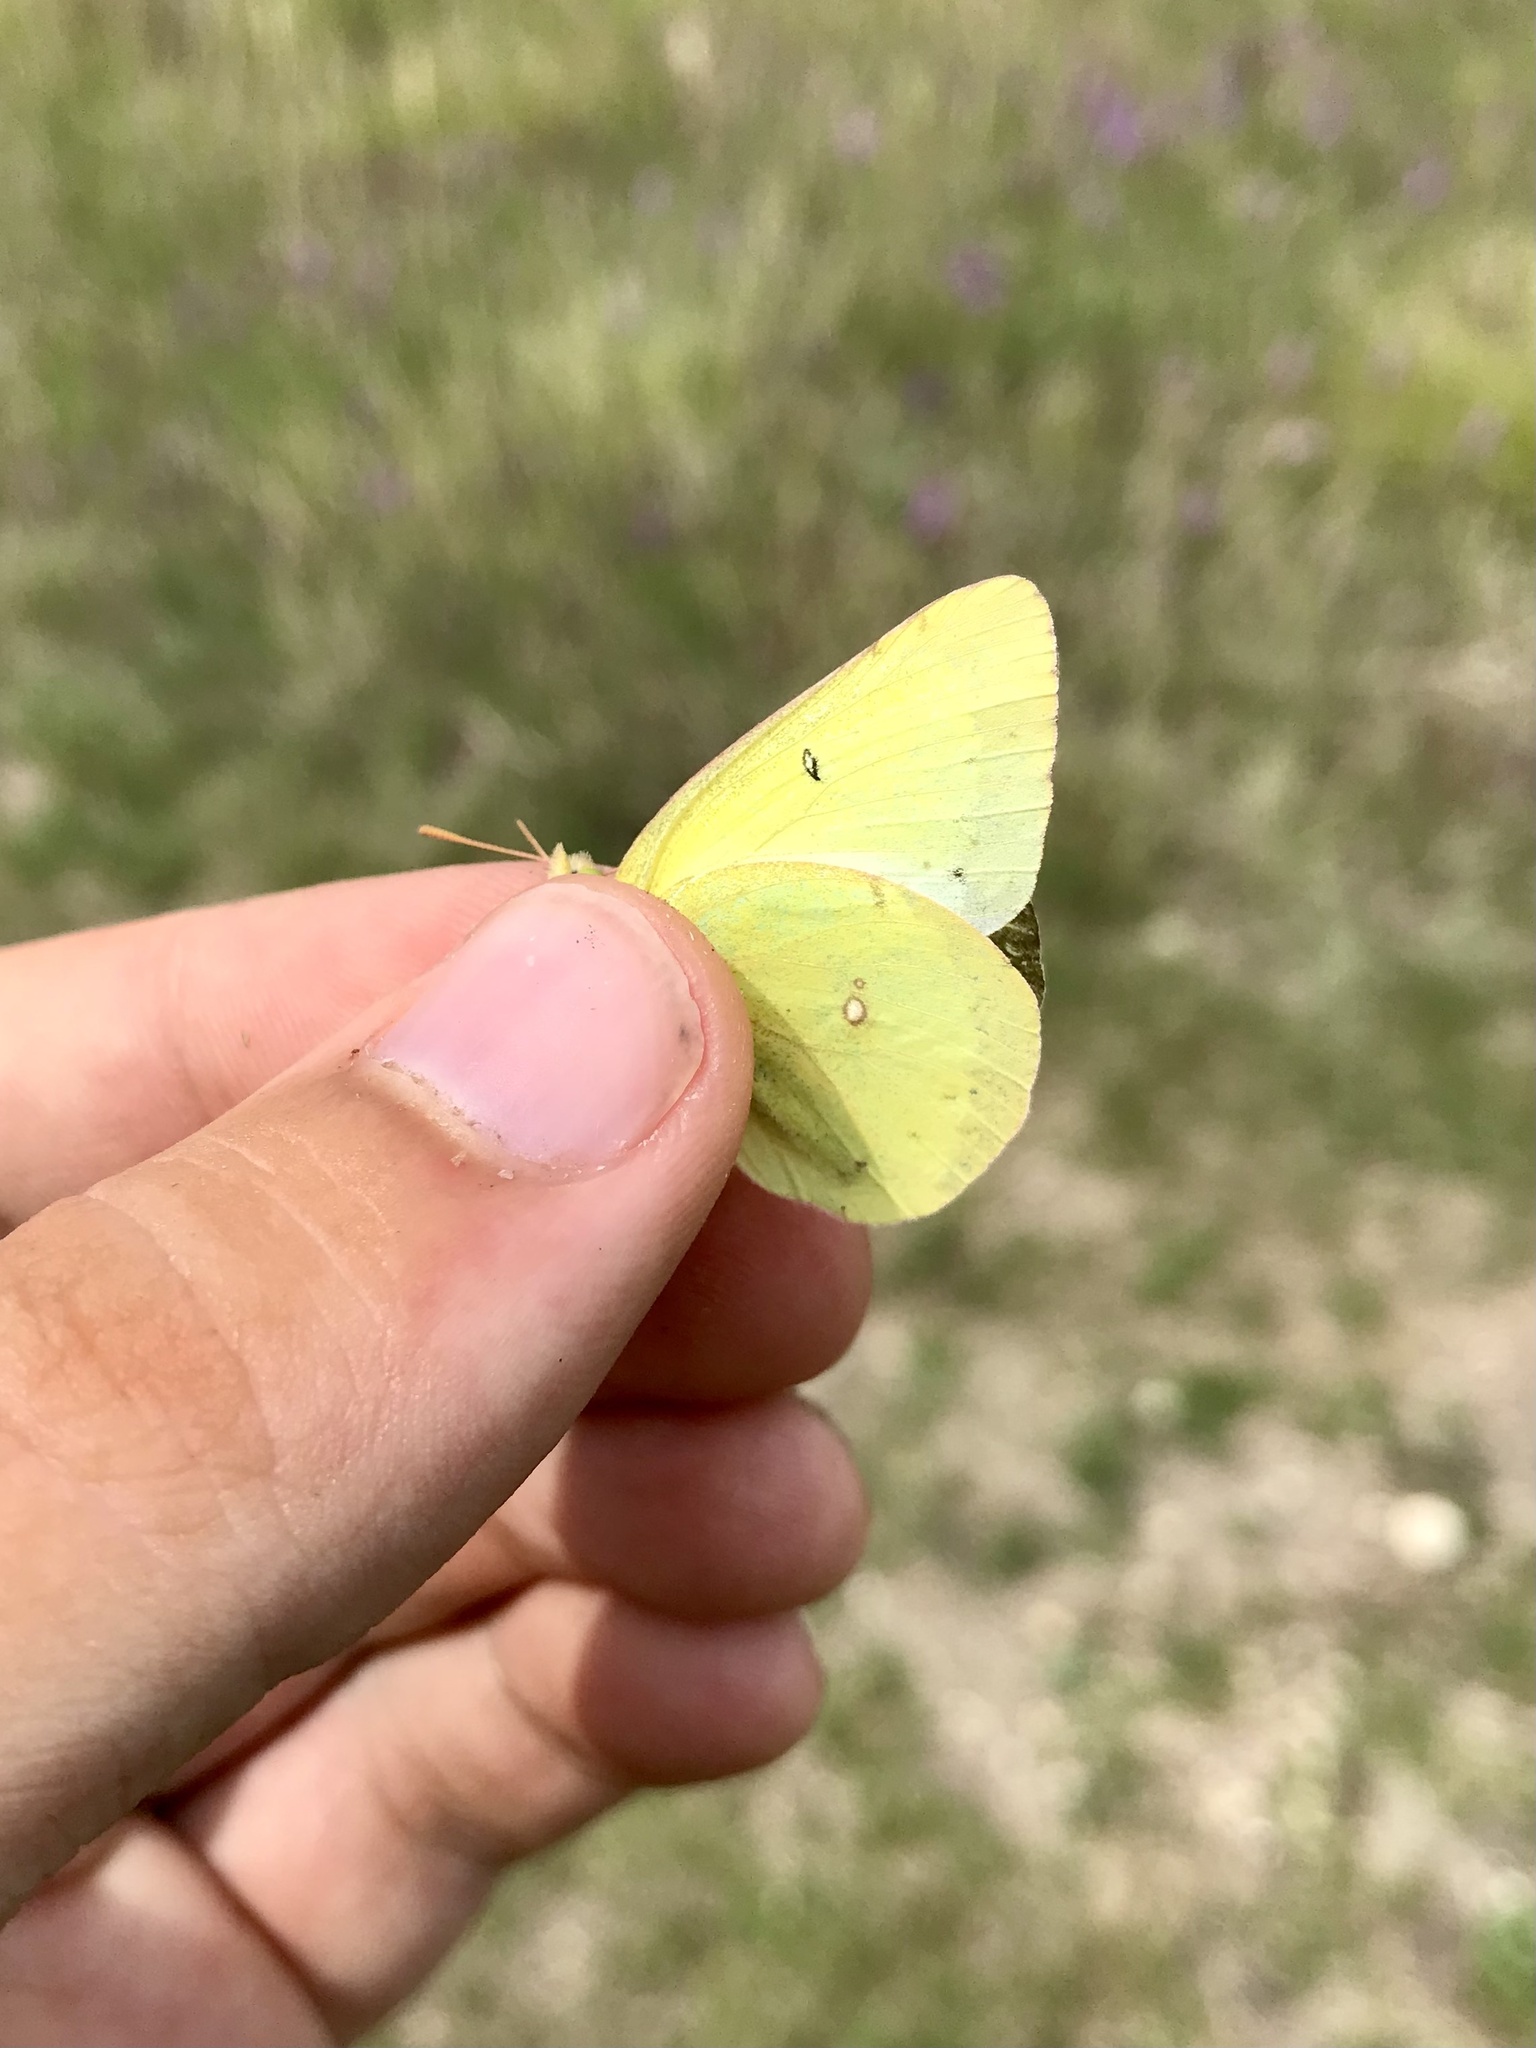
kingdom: Animalia
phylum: Arthropoda
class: Insecta
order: Lepidoptera
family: Pieridae
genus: Colias
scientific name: Colias philodice
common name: Clouded sulphur
